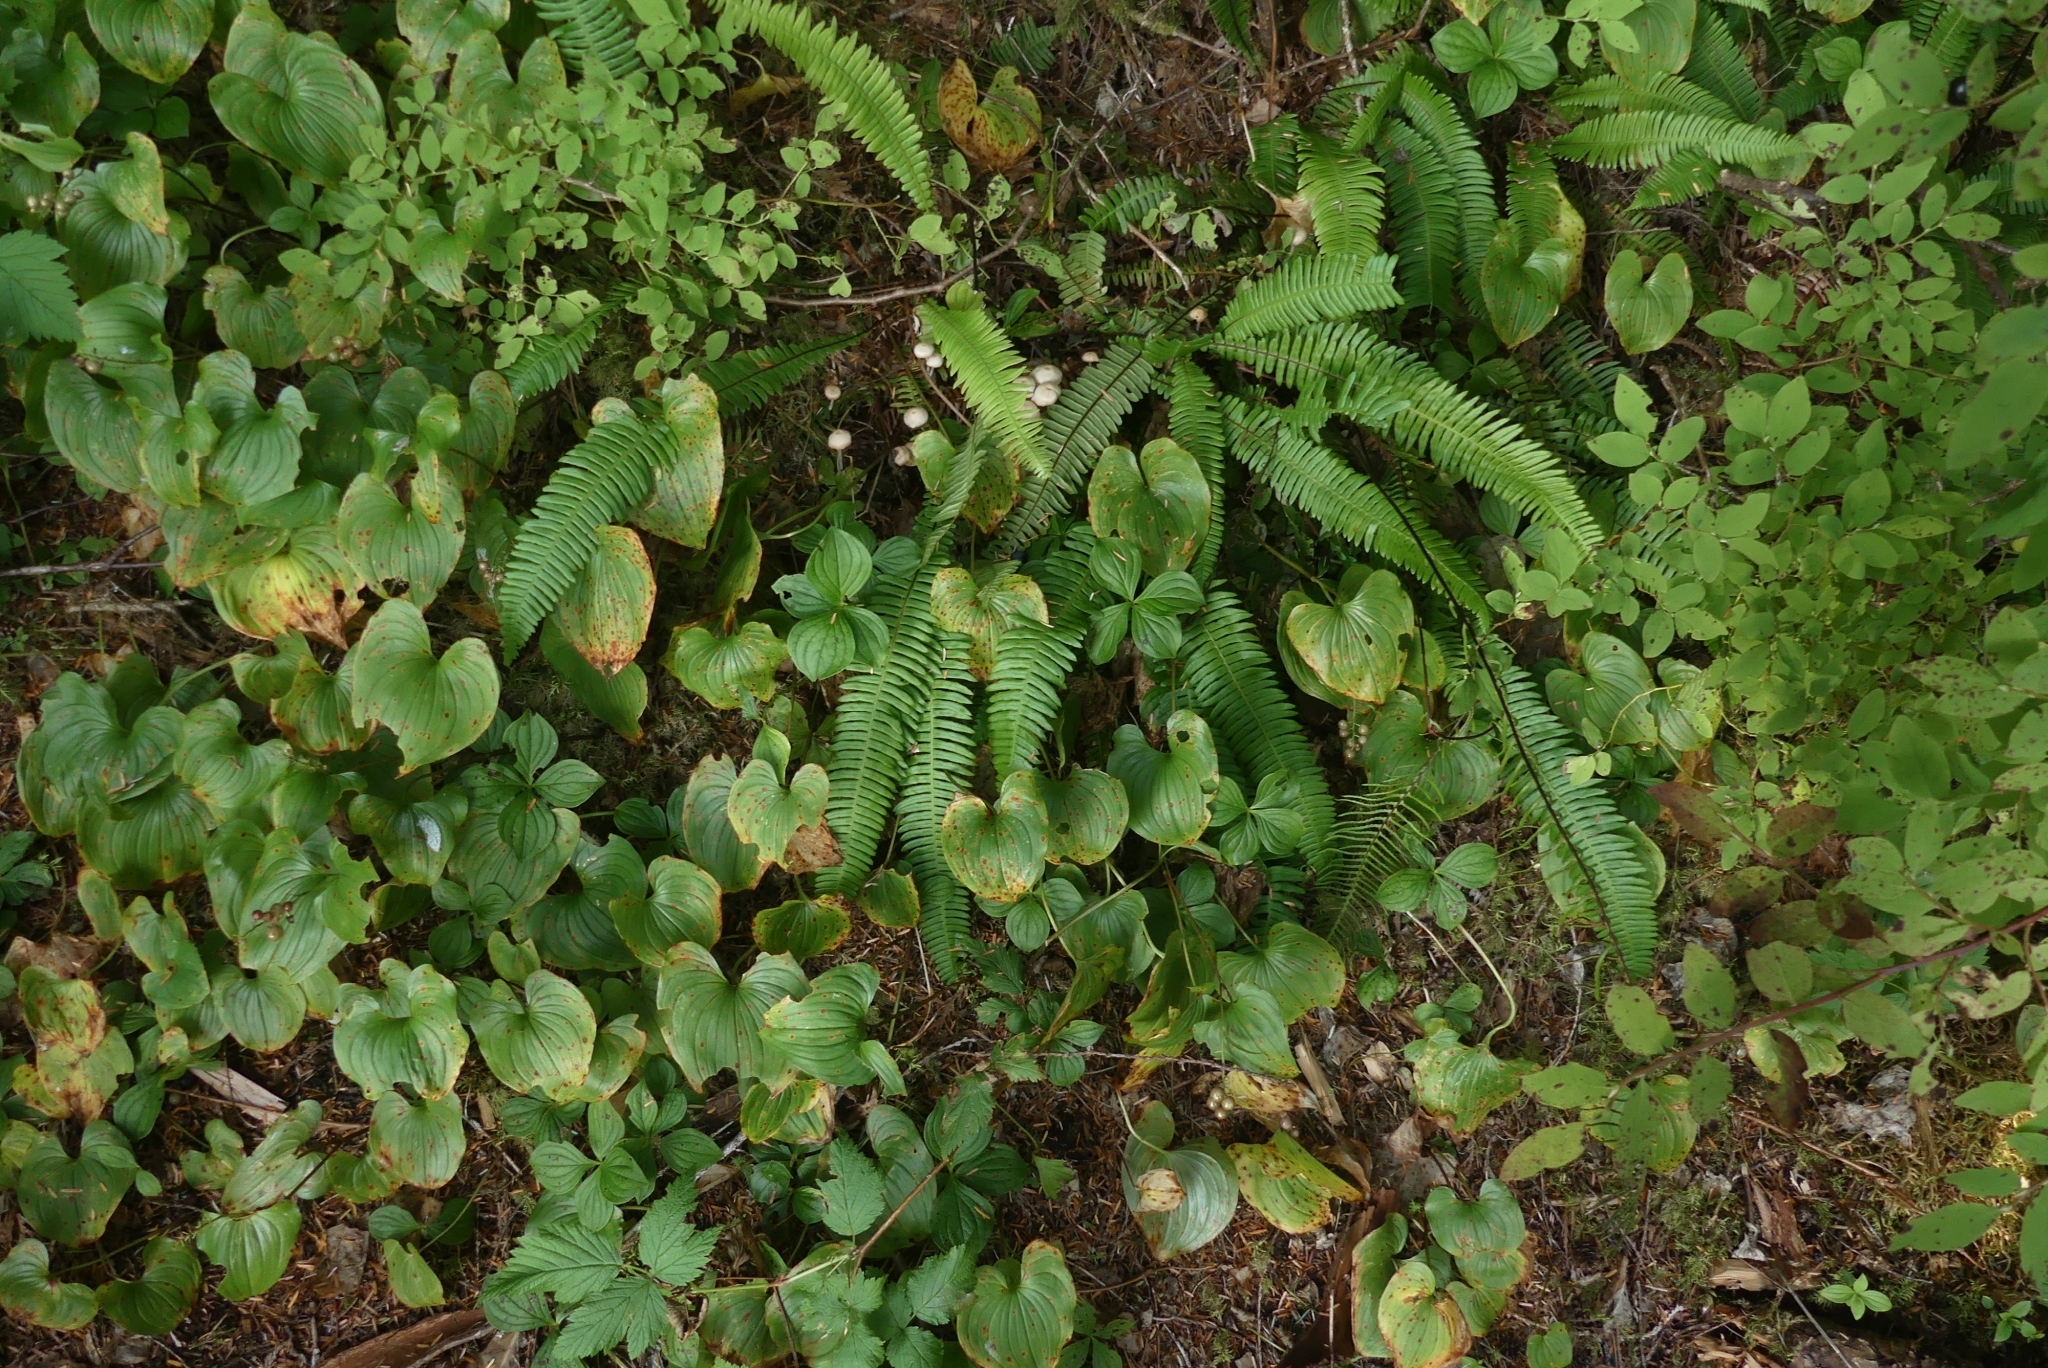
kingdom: Plantae
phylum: Tracheophyta
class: Polypodiopsida
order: Polypodiales
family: Blechnaceae
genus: Struthiopteris
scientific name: Struthiopteris spicant
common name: Deer fern
